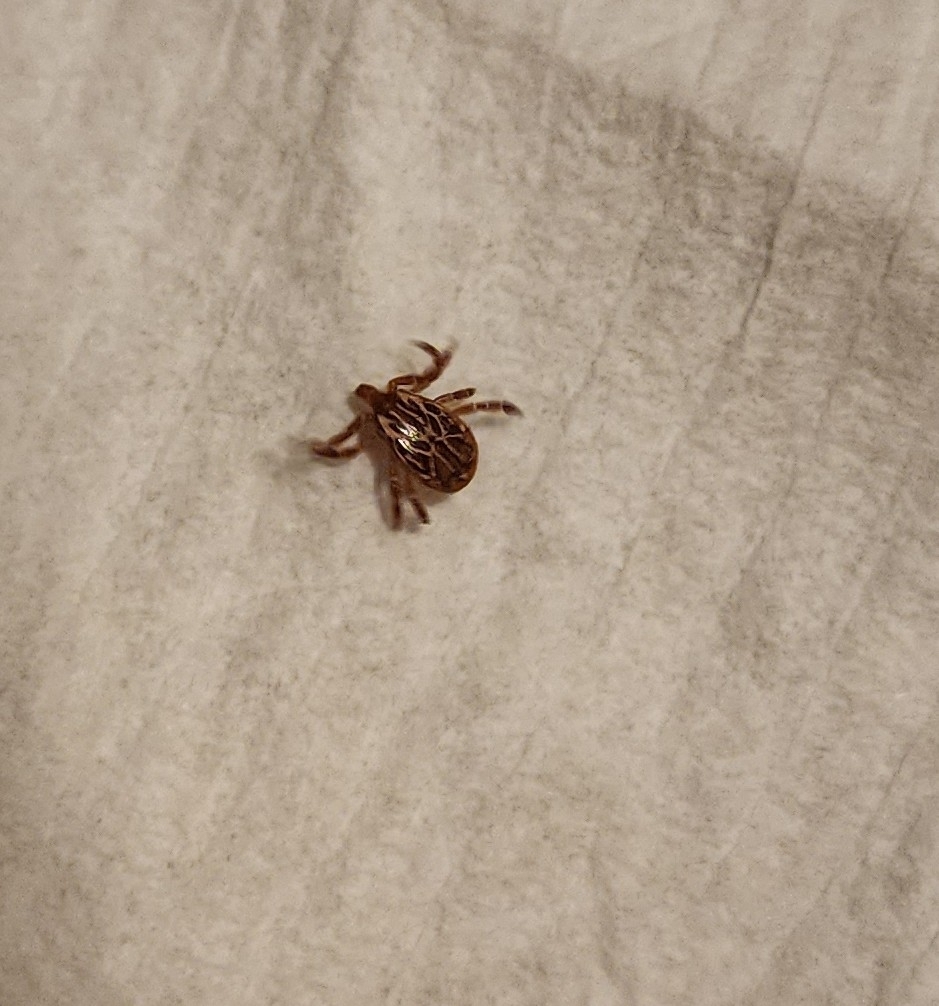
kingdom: Animalia
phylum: Arthropoda
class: Arachnida
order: Ixodida
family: Ixodidae
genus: Amblyomma
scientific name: Amblyomma maculatum
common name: Gulf coast tick
